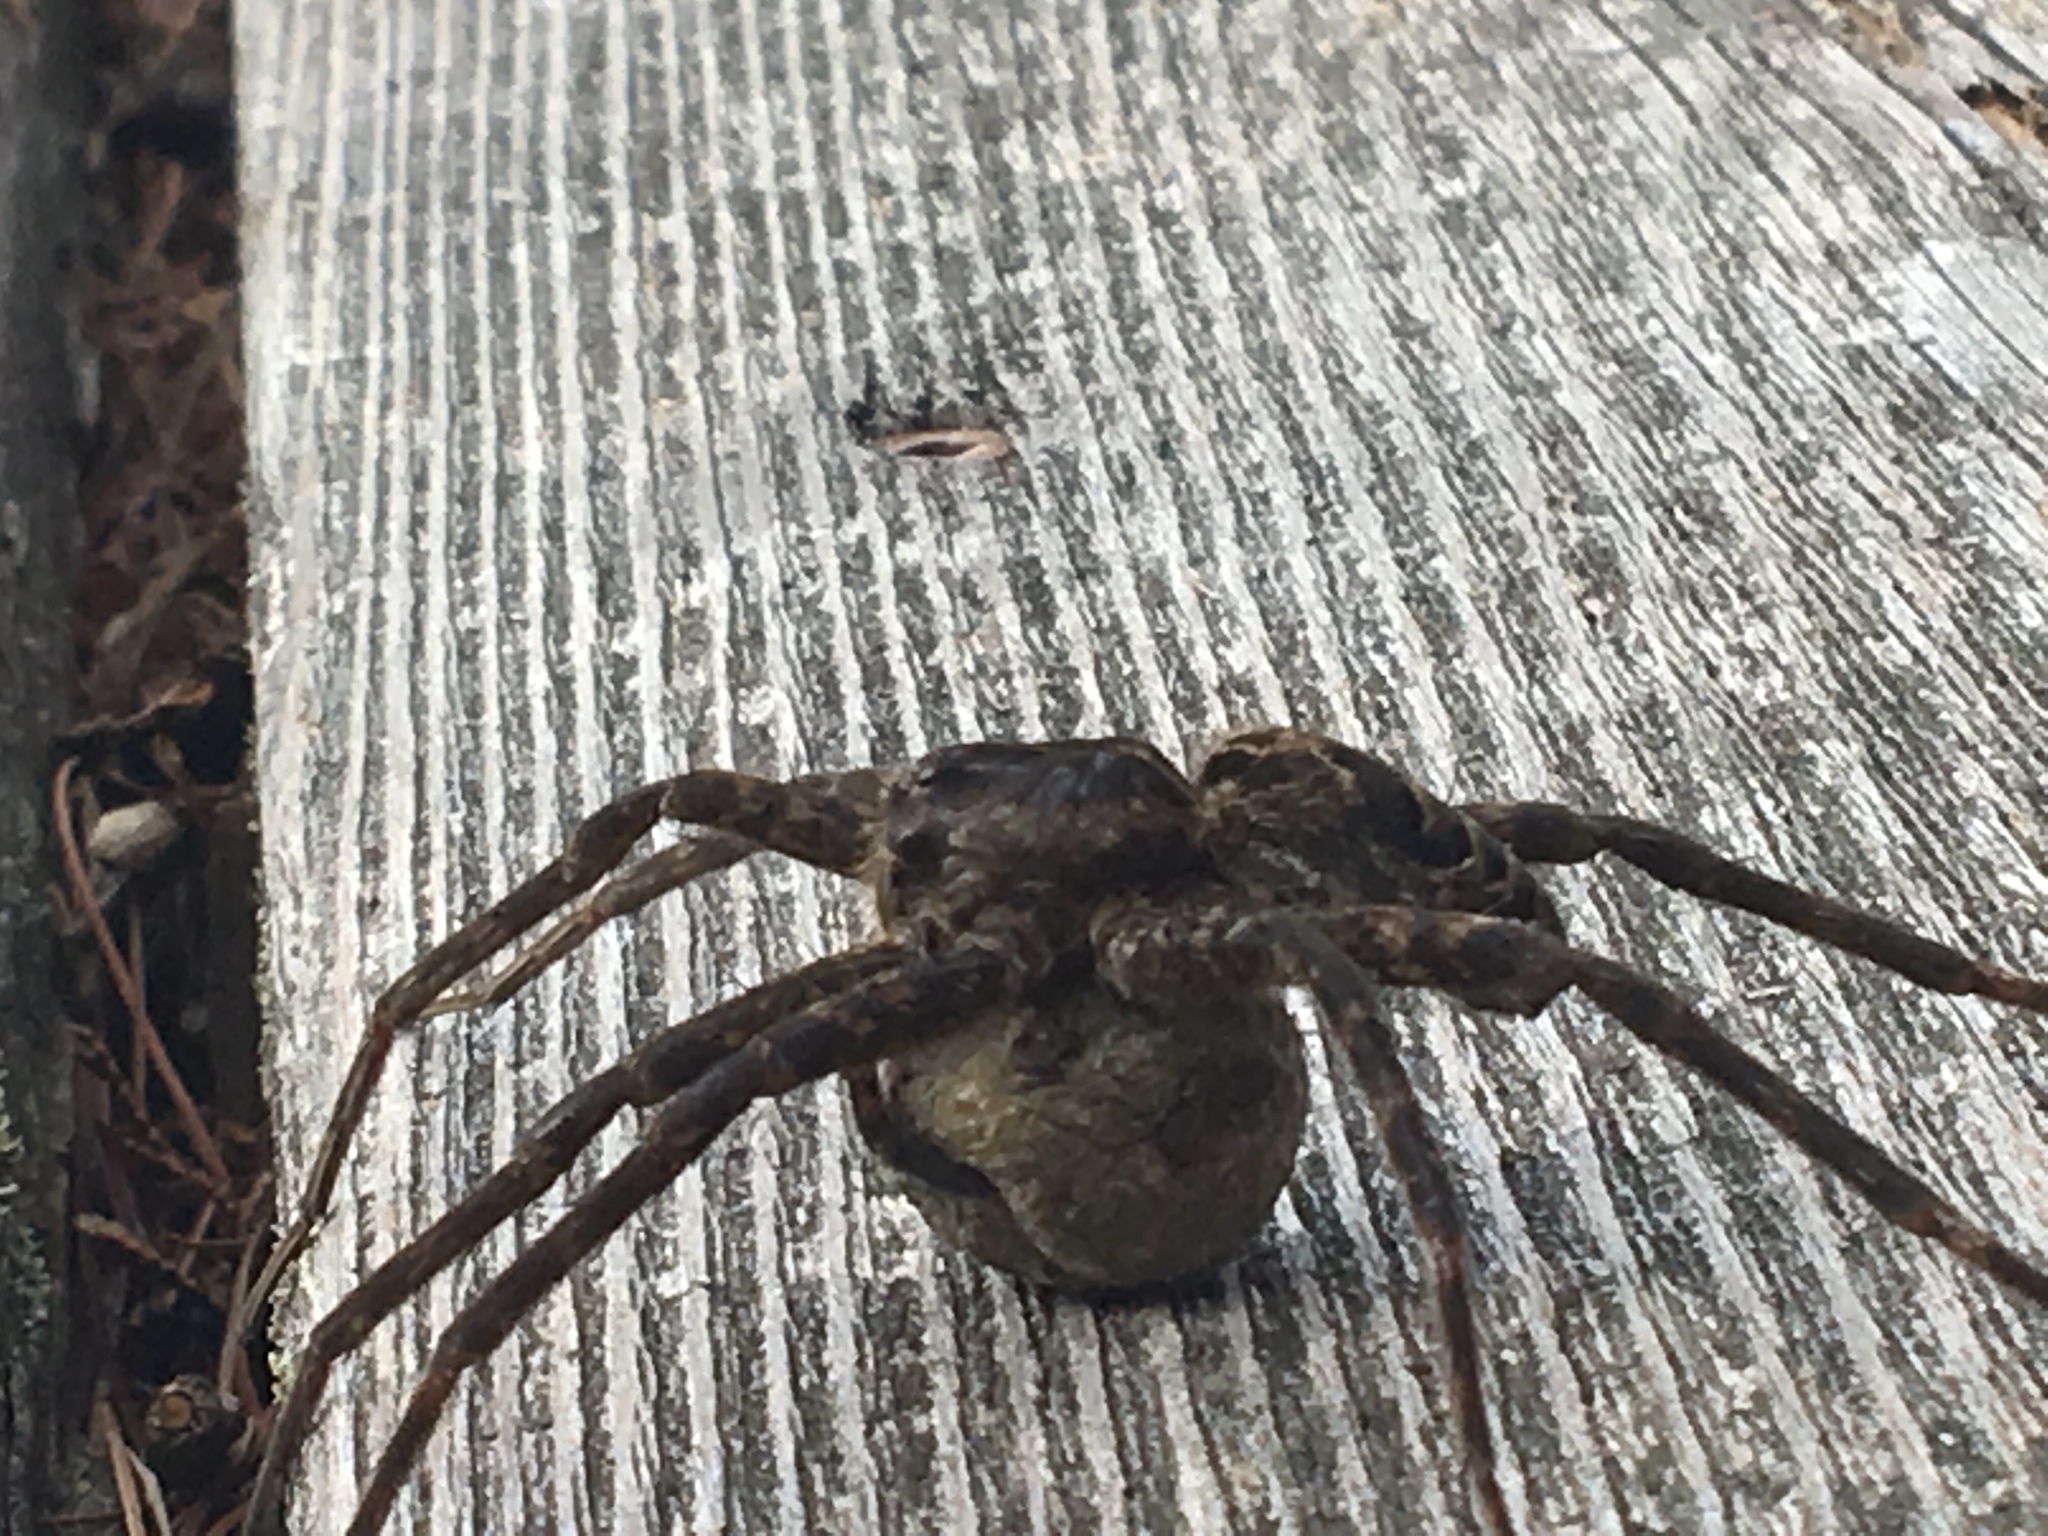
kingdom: Animalia
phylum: Arthropoda
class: Arachnida
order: Araneae
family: Pisauridae
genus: Dolomedes
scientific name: Dolomedes scriptus
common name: Striped fishing spider
